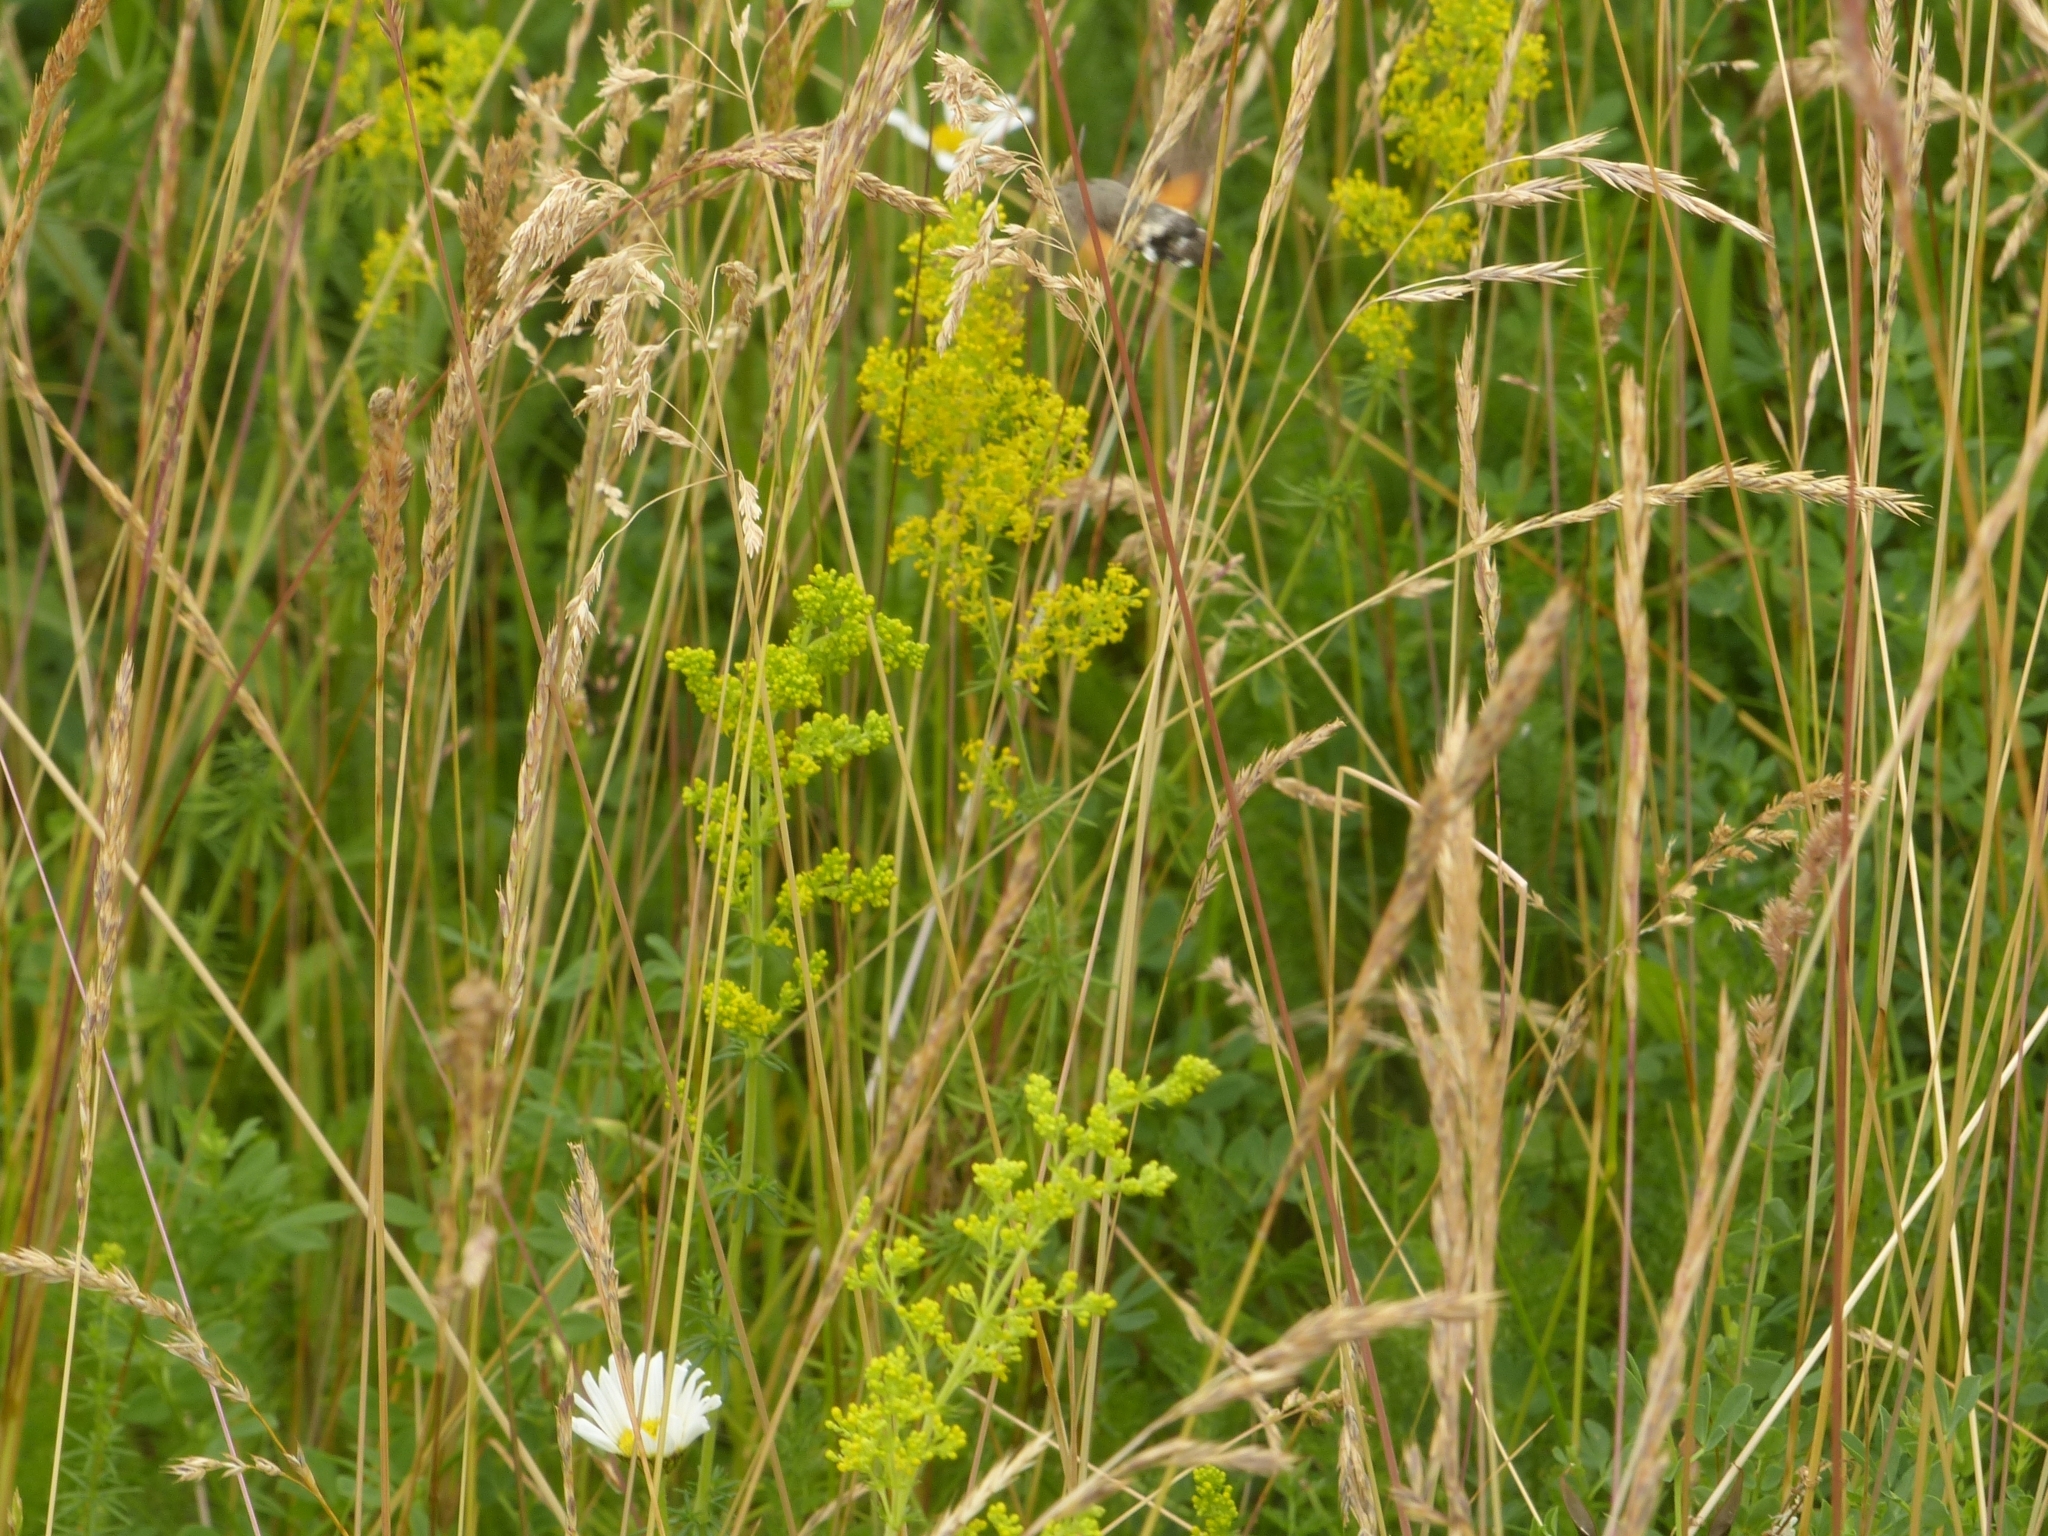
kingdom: Animalia
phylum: Arthropoda
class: Insecta
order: Lepidoptera
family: Sphingidae
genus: Macroglossum
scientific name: Macroglossum stellatarum
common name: Humming-bird hawk-moth
